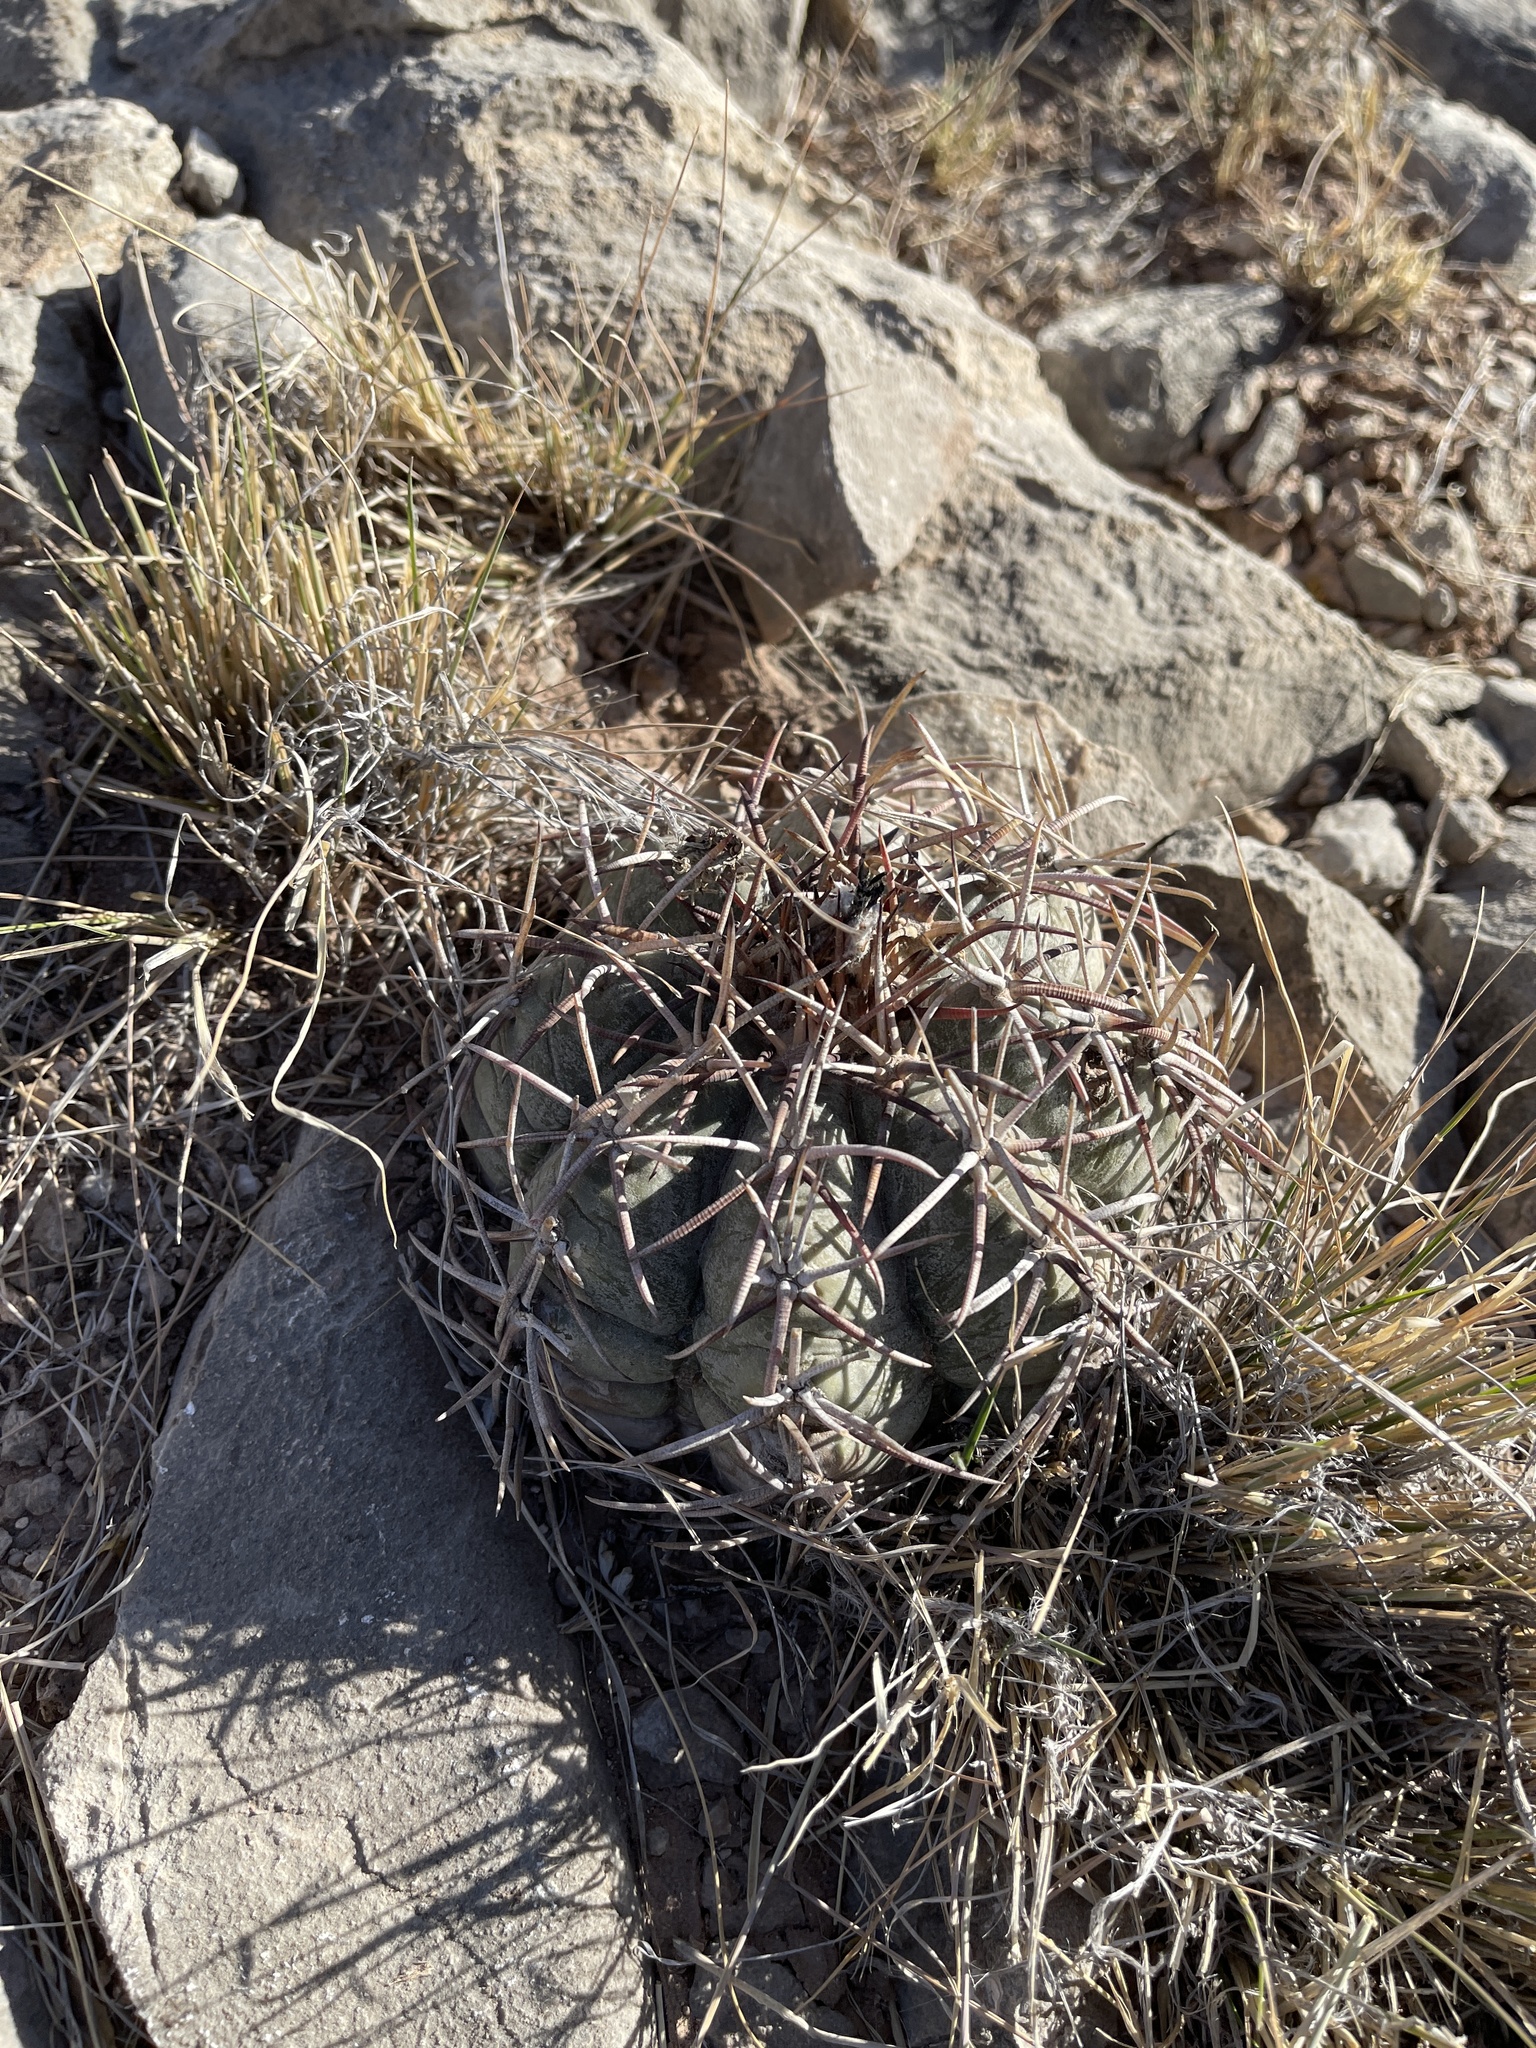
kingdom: Plantae
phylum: Tracheophyta
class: Magnoliopsida
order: Caryophyllales
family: Cactaceae
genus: Echinocactus
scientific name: Echinocactus horizonthalonius
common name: Devilshead
